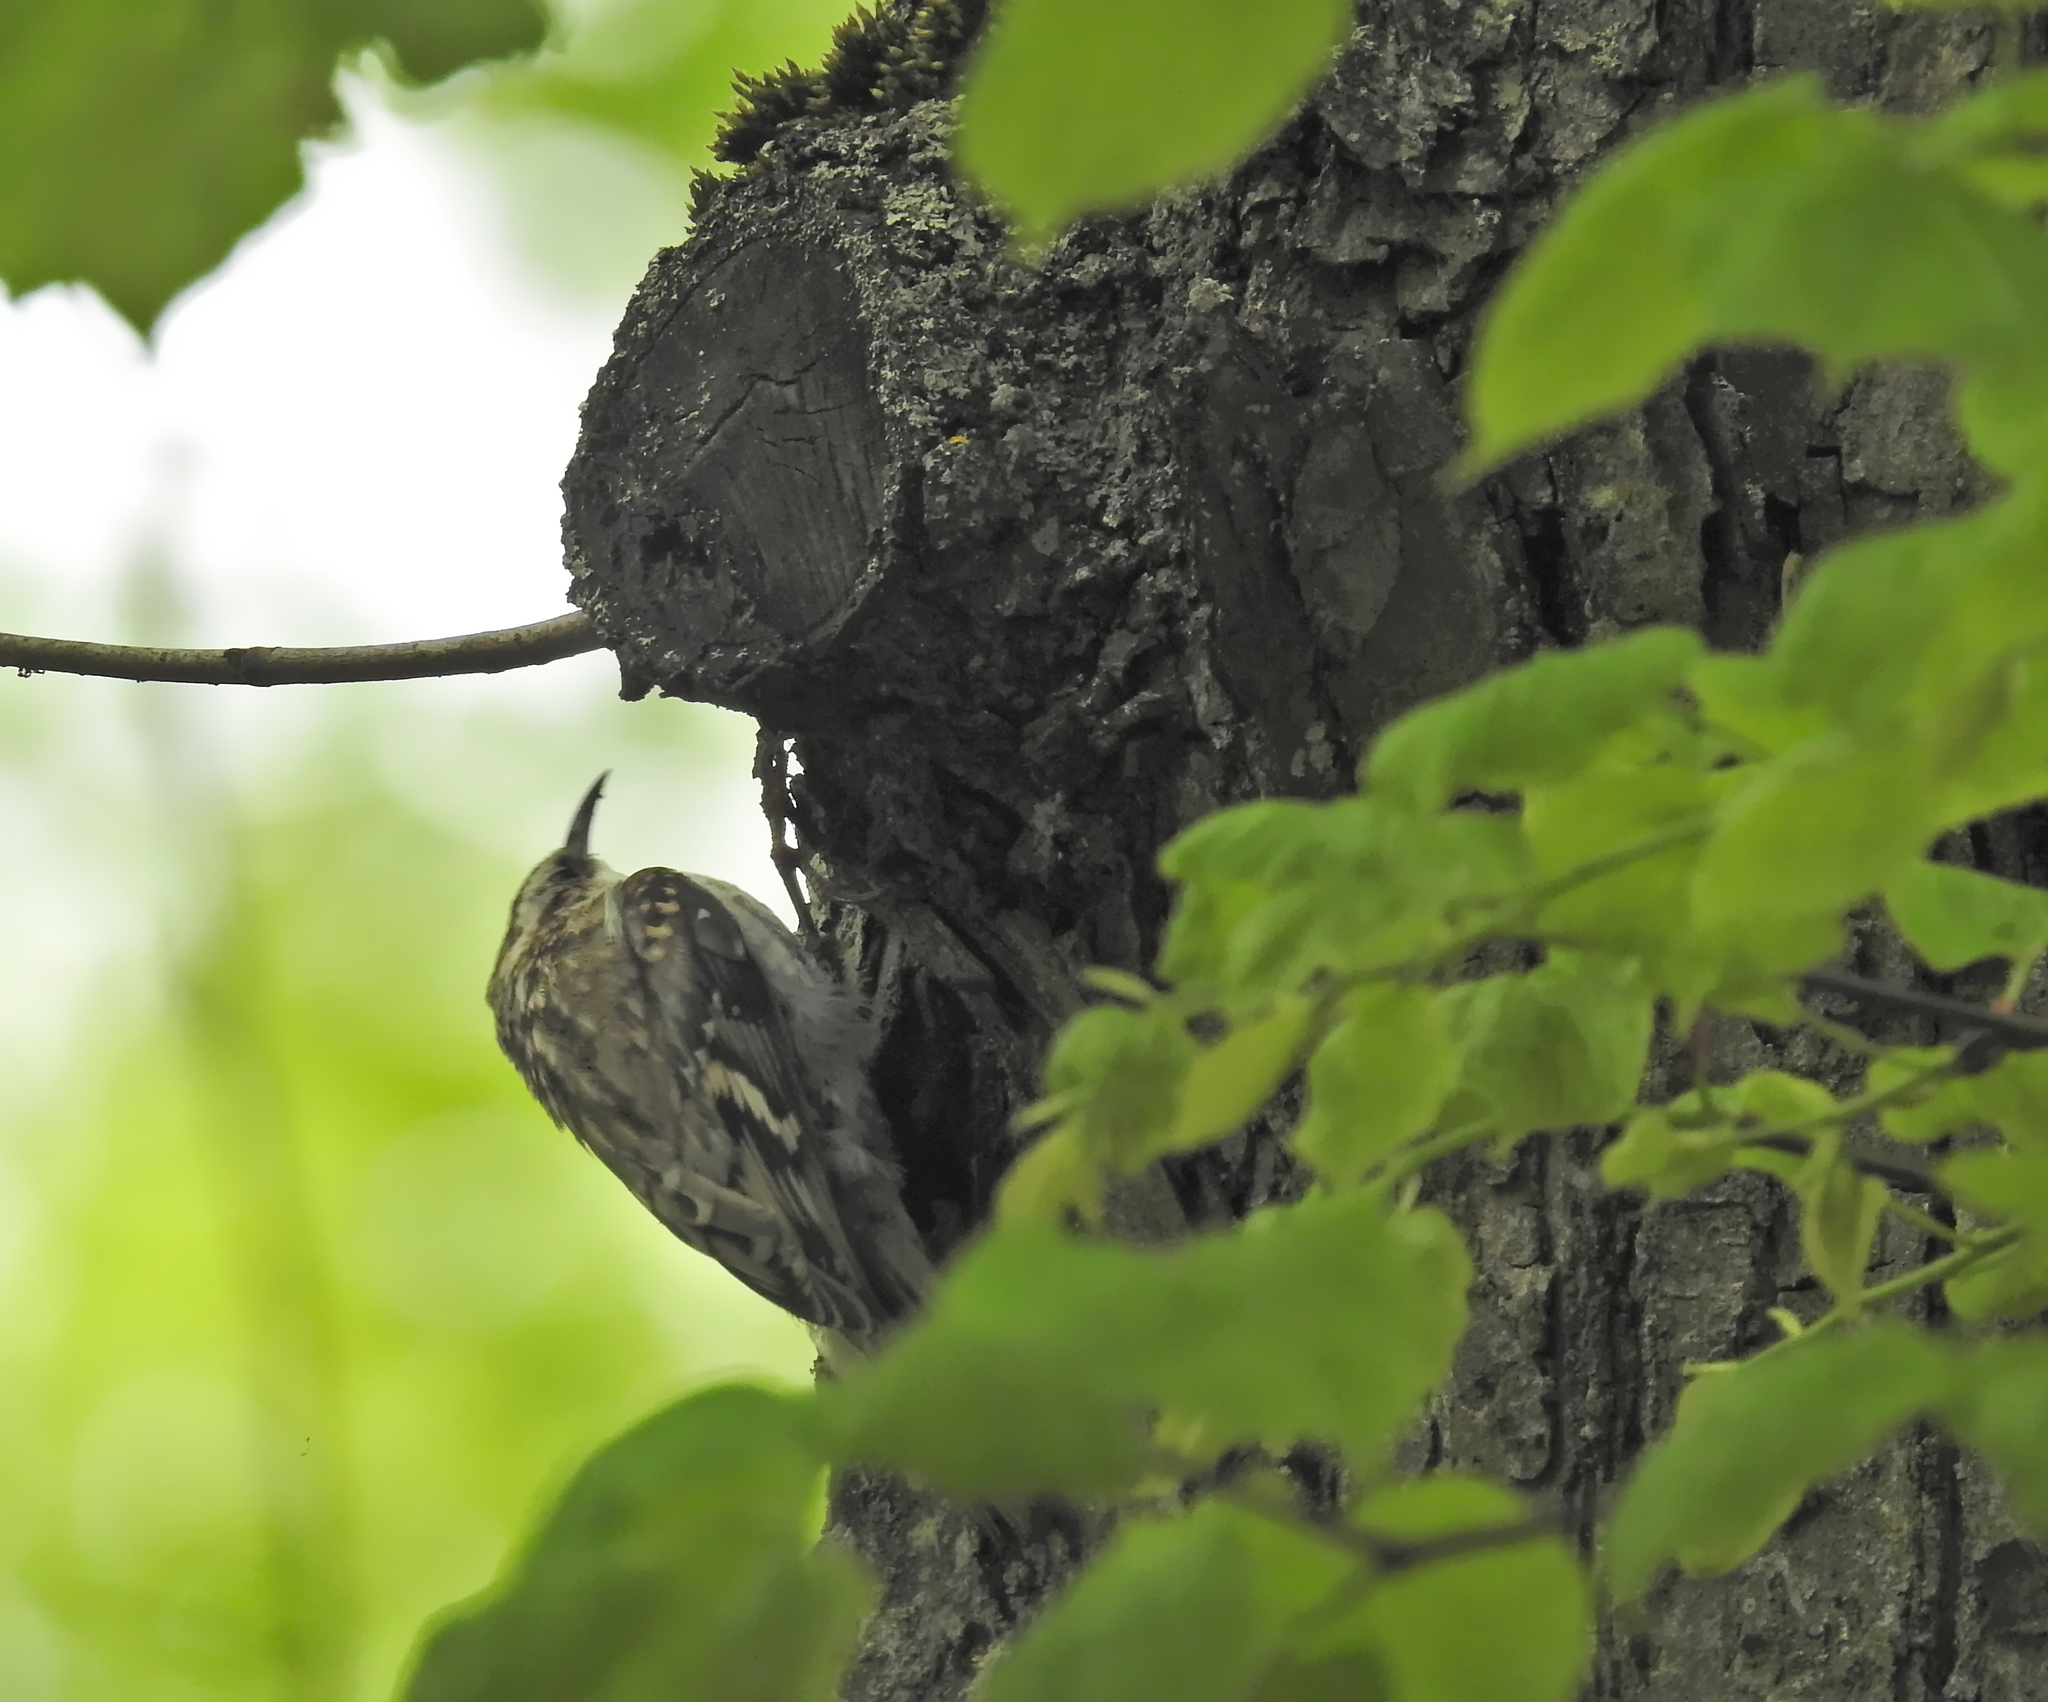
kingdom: Animalia
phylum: Chordata
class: Aves
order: Passeriformes
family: Certhiidae
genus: Certhia
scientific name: Certhia familiaris
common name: Eurasian treecreeper
